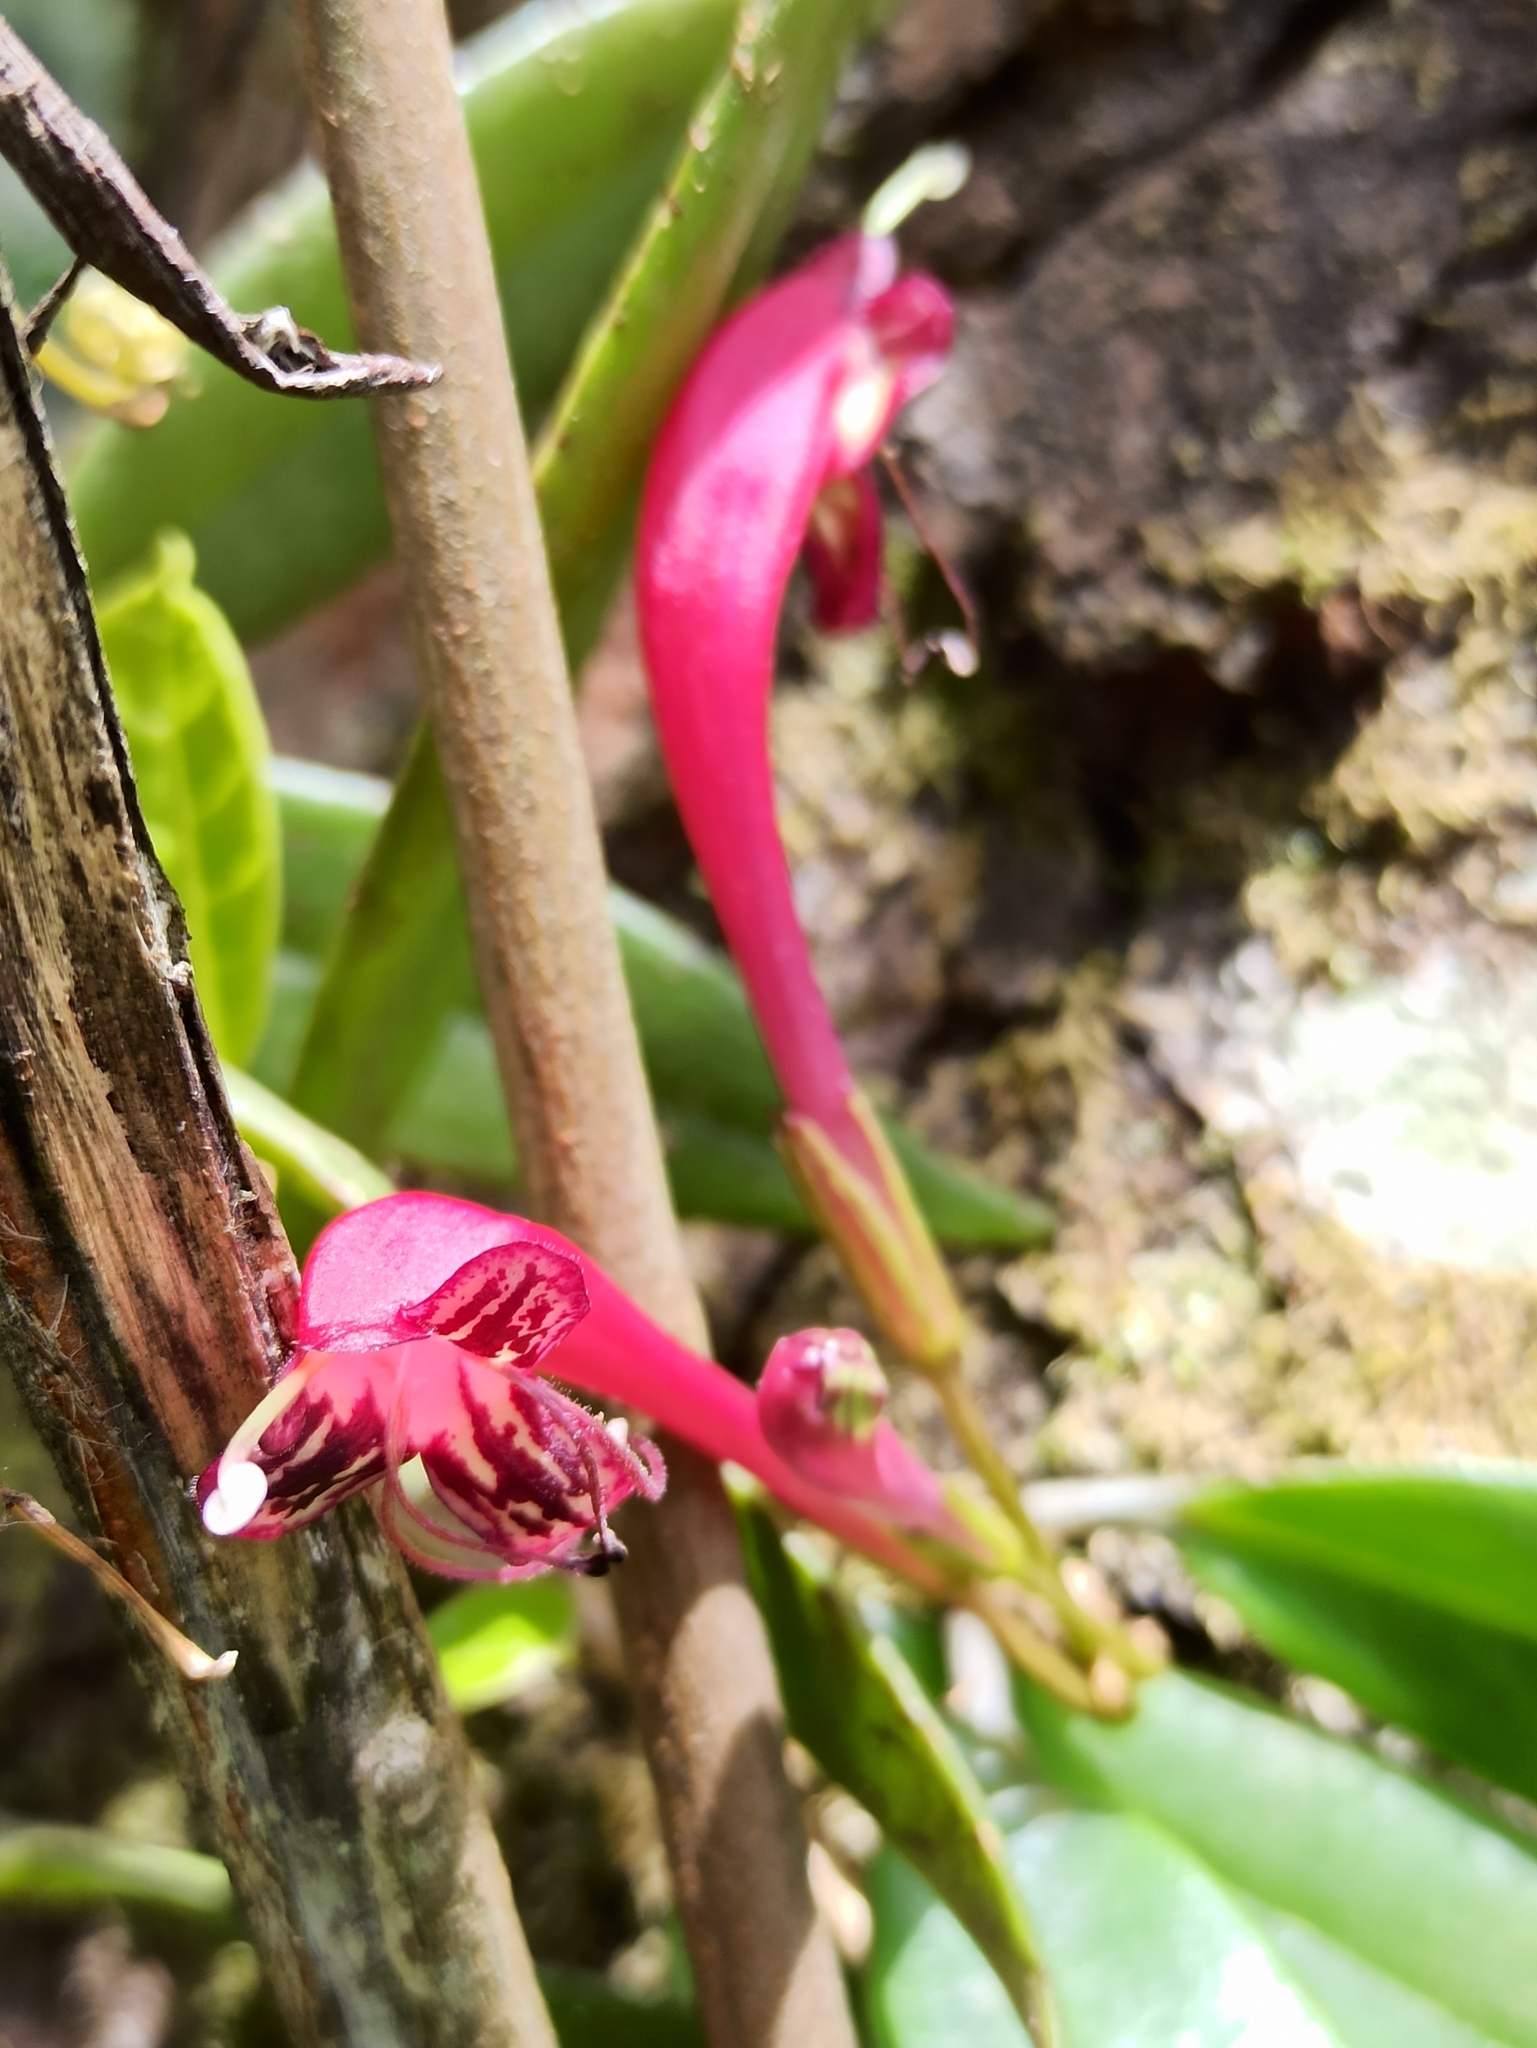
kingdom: Plantae
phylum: Tracheophyta
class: Magnoliopsida
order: Lamiales
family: Gesneriaceae
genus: Aeschynanthus
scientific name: Aeschynanthus perrottetii
